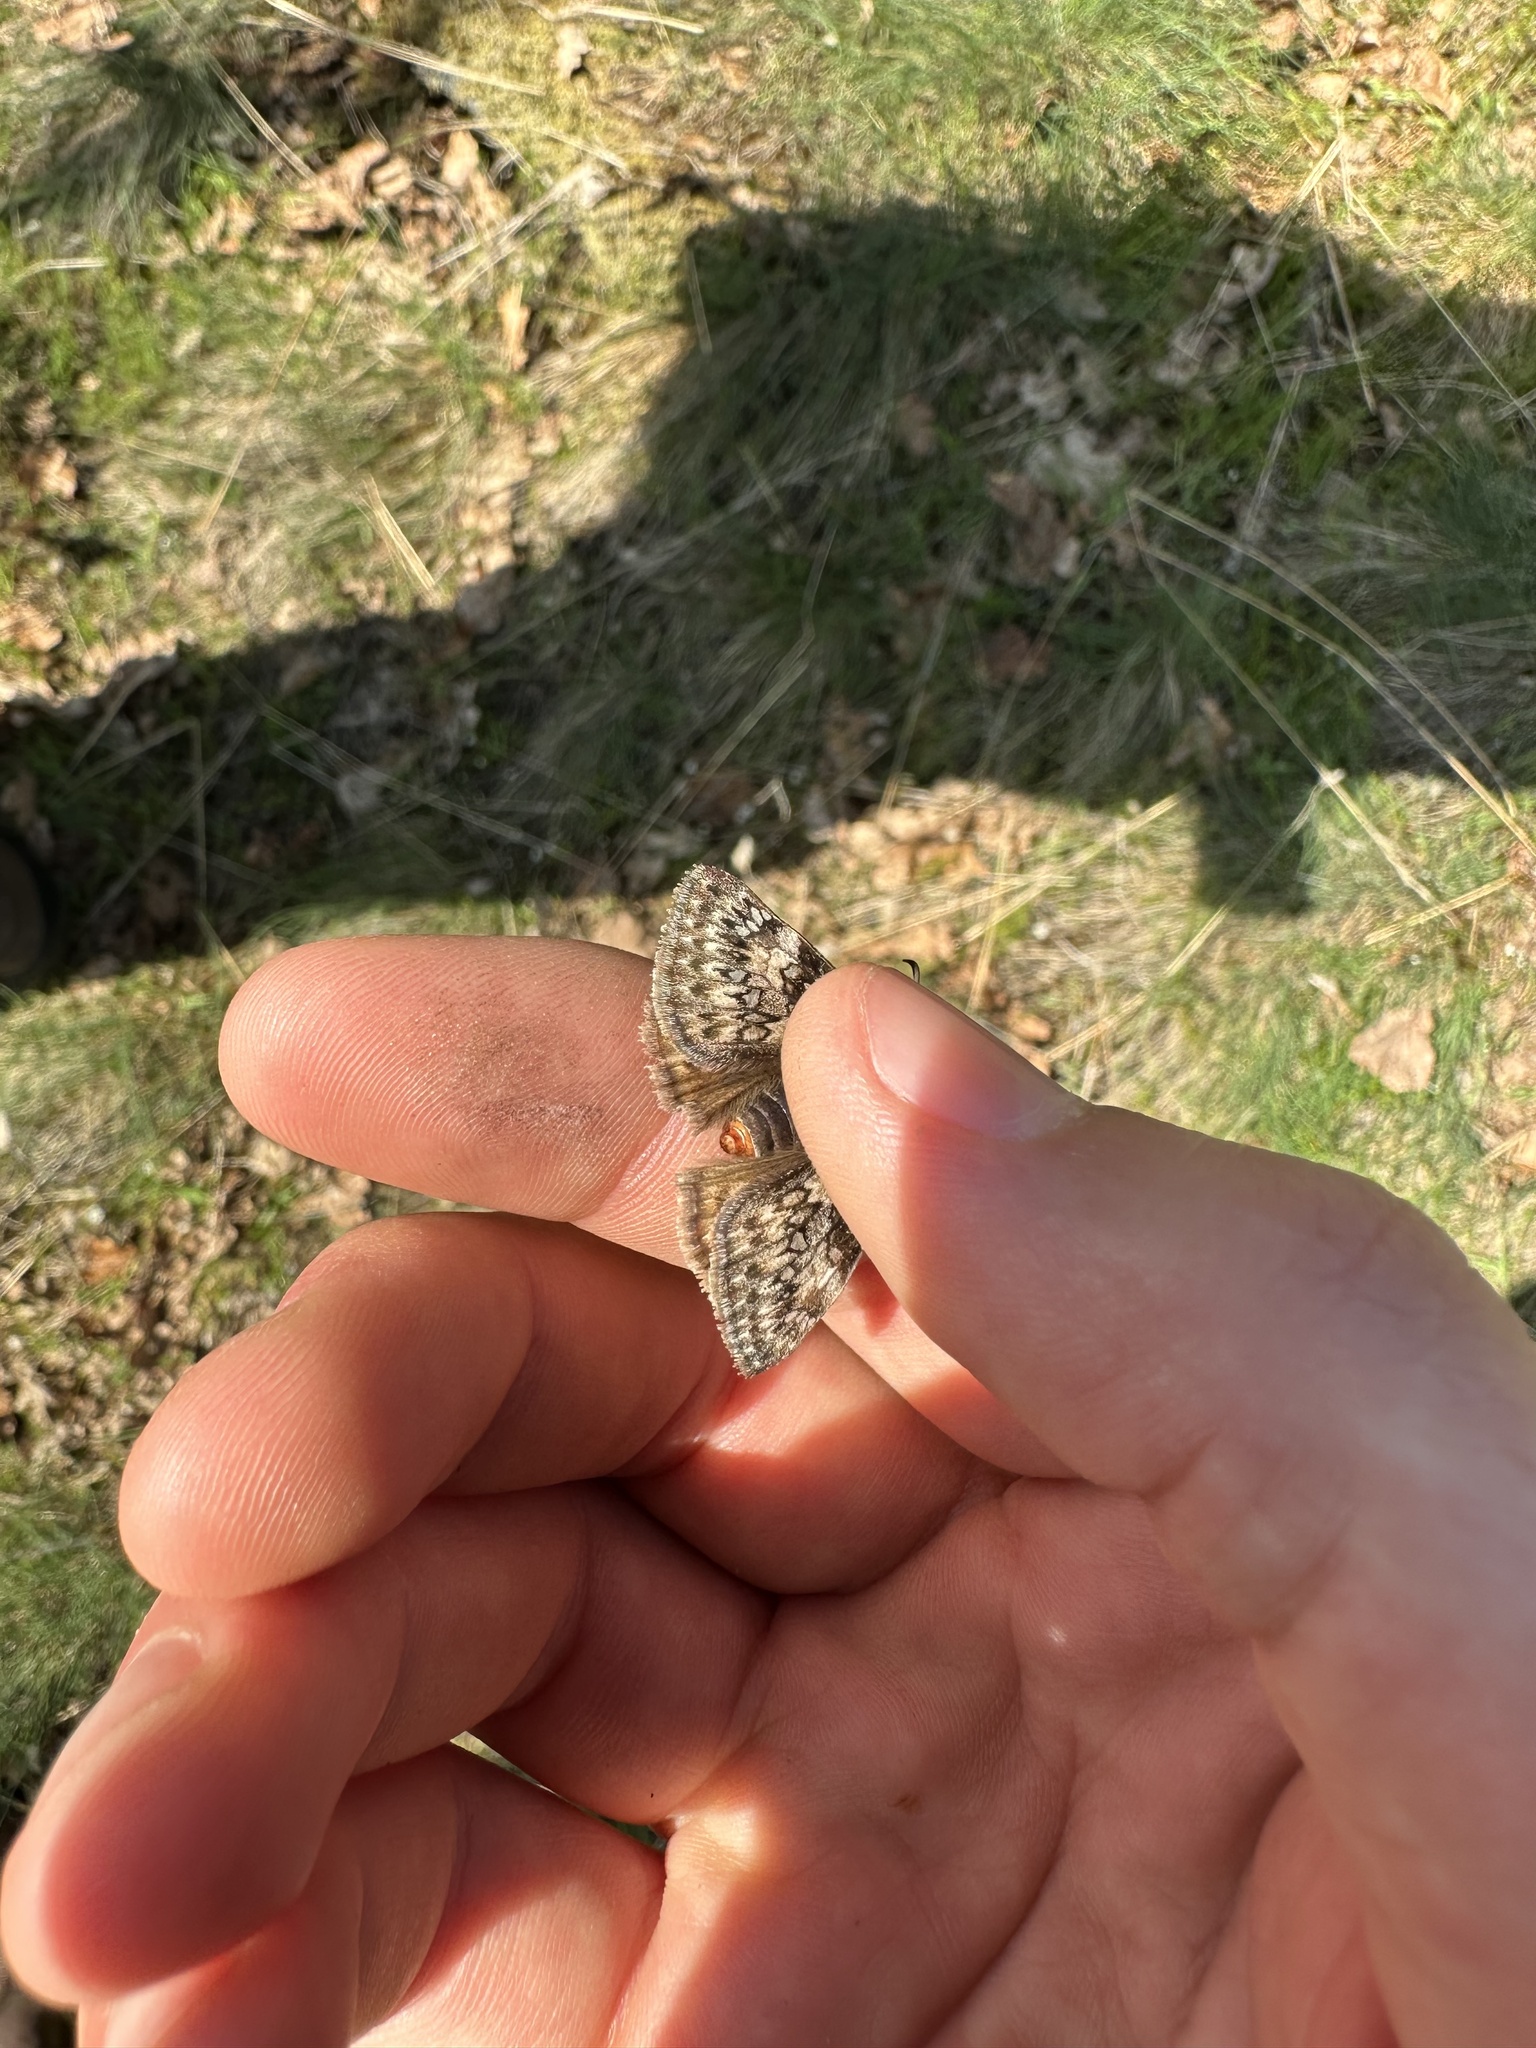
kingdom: Animalia
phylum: Arthropoda
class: Insecta
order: Lepidoptera
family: Hesperiidae
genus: Erynnis
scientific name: Erynnis propertius
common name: Propertius duskywing
